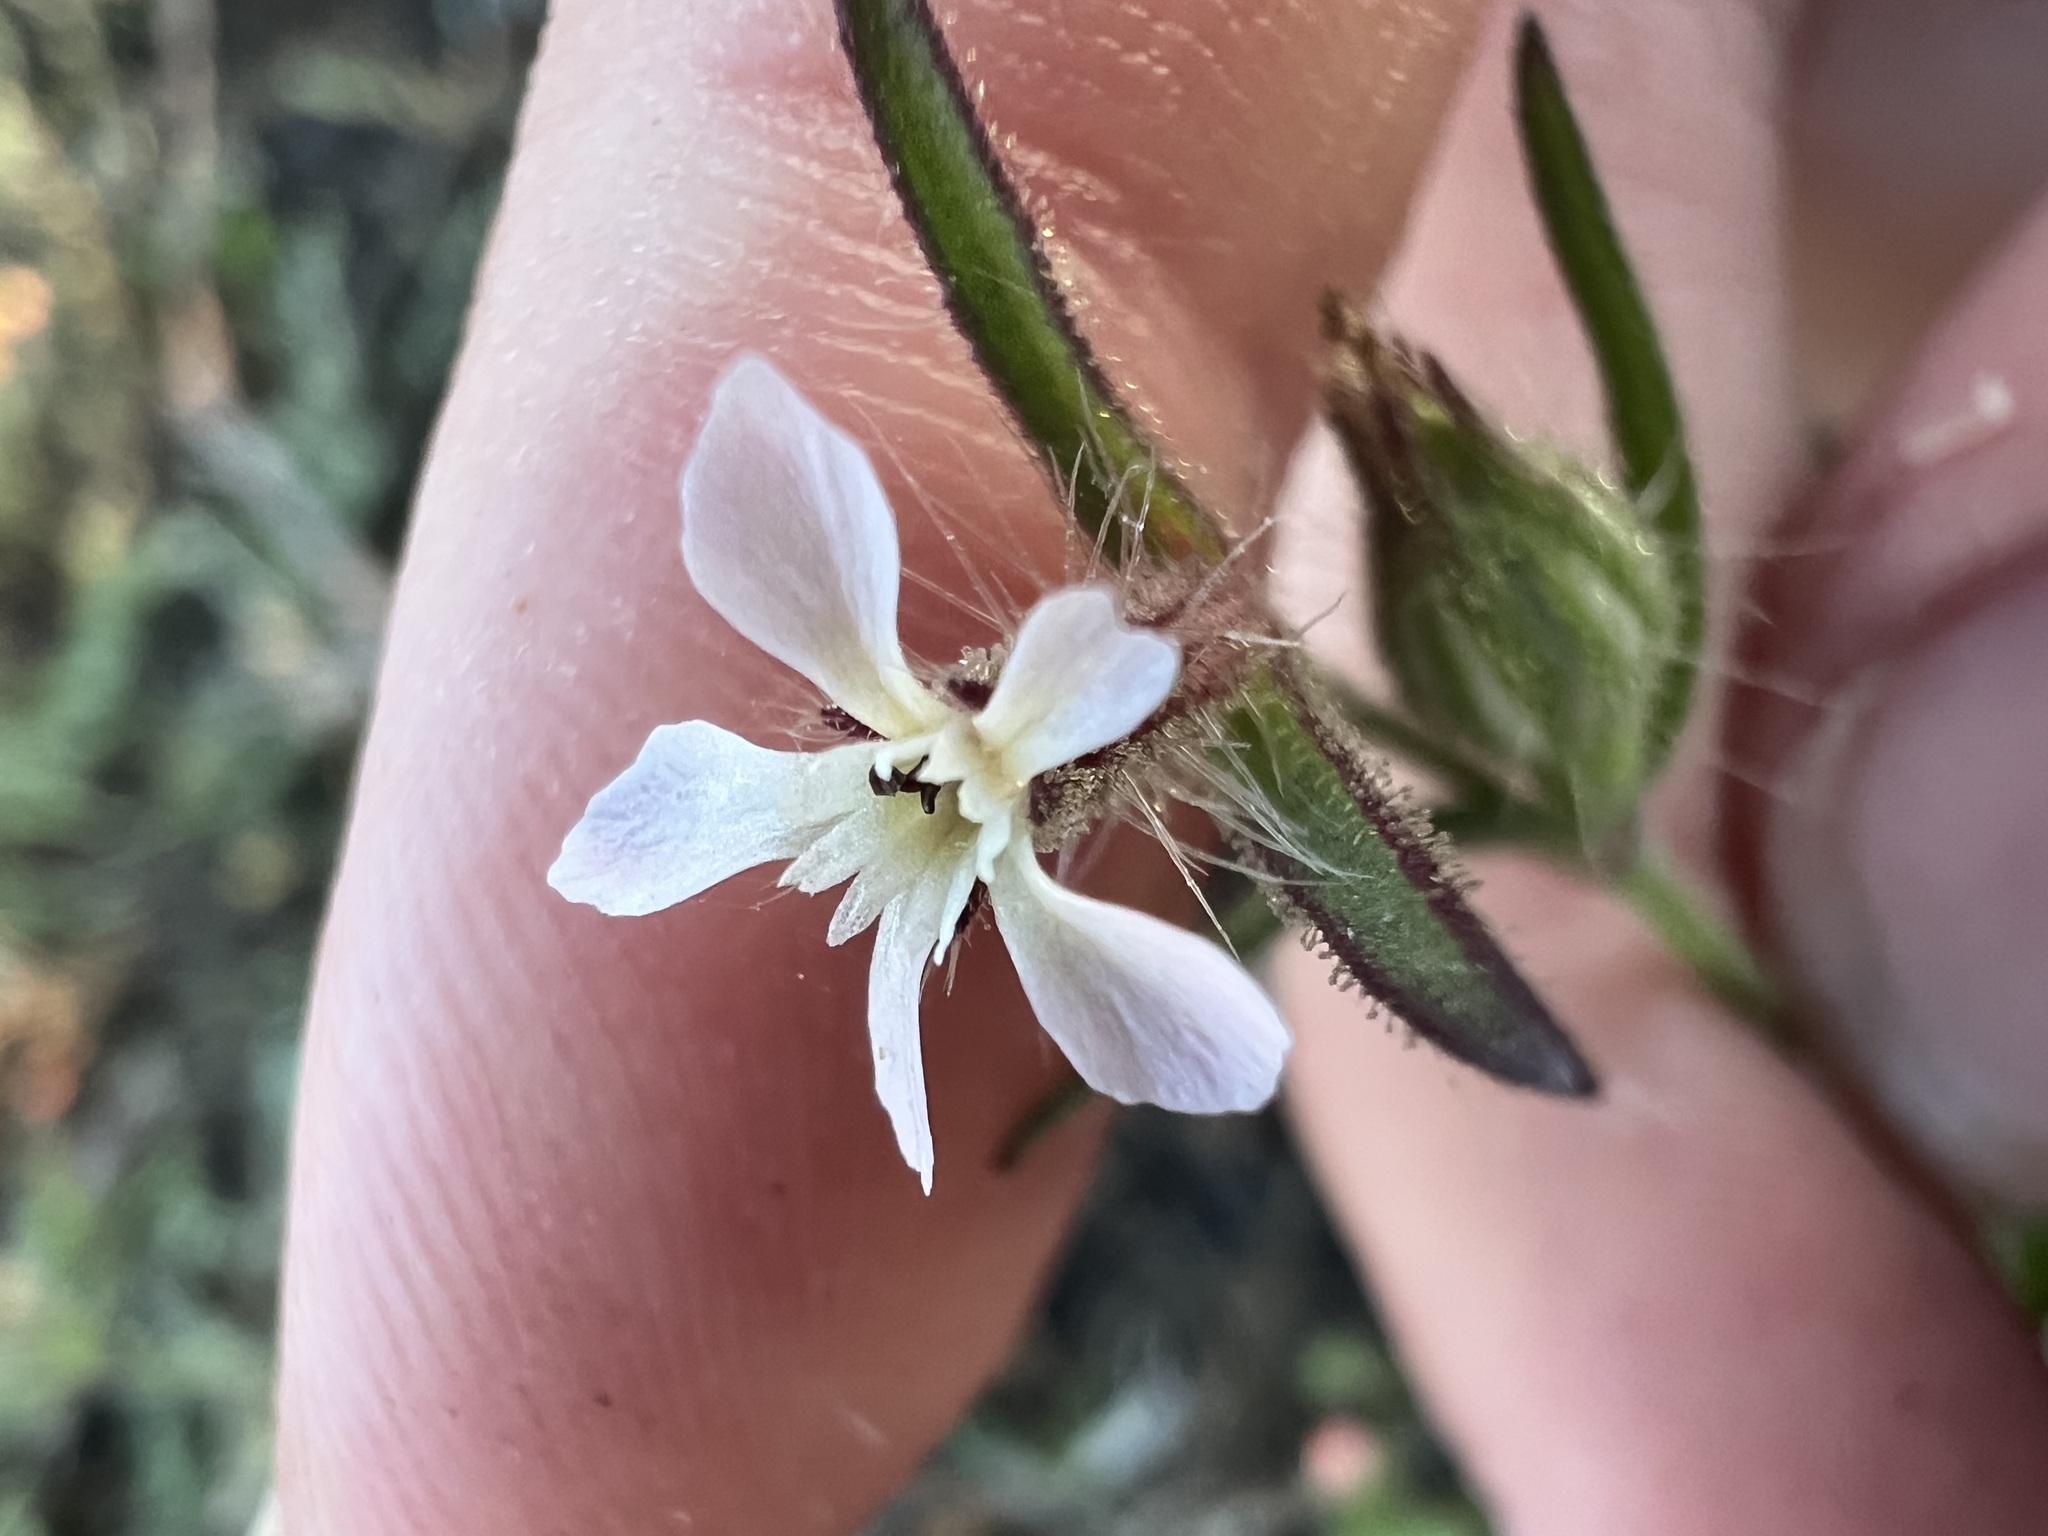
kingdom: Plantae
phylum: Tracheophyta
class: Magnoliopsida
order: Caryophyllales
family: Caryophyllaceae
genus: Silene
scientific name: Silene gallica
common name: Small-flowered catchfly
